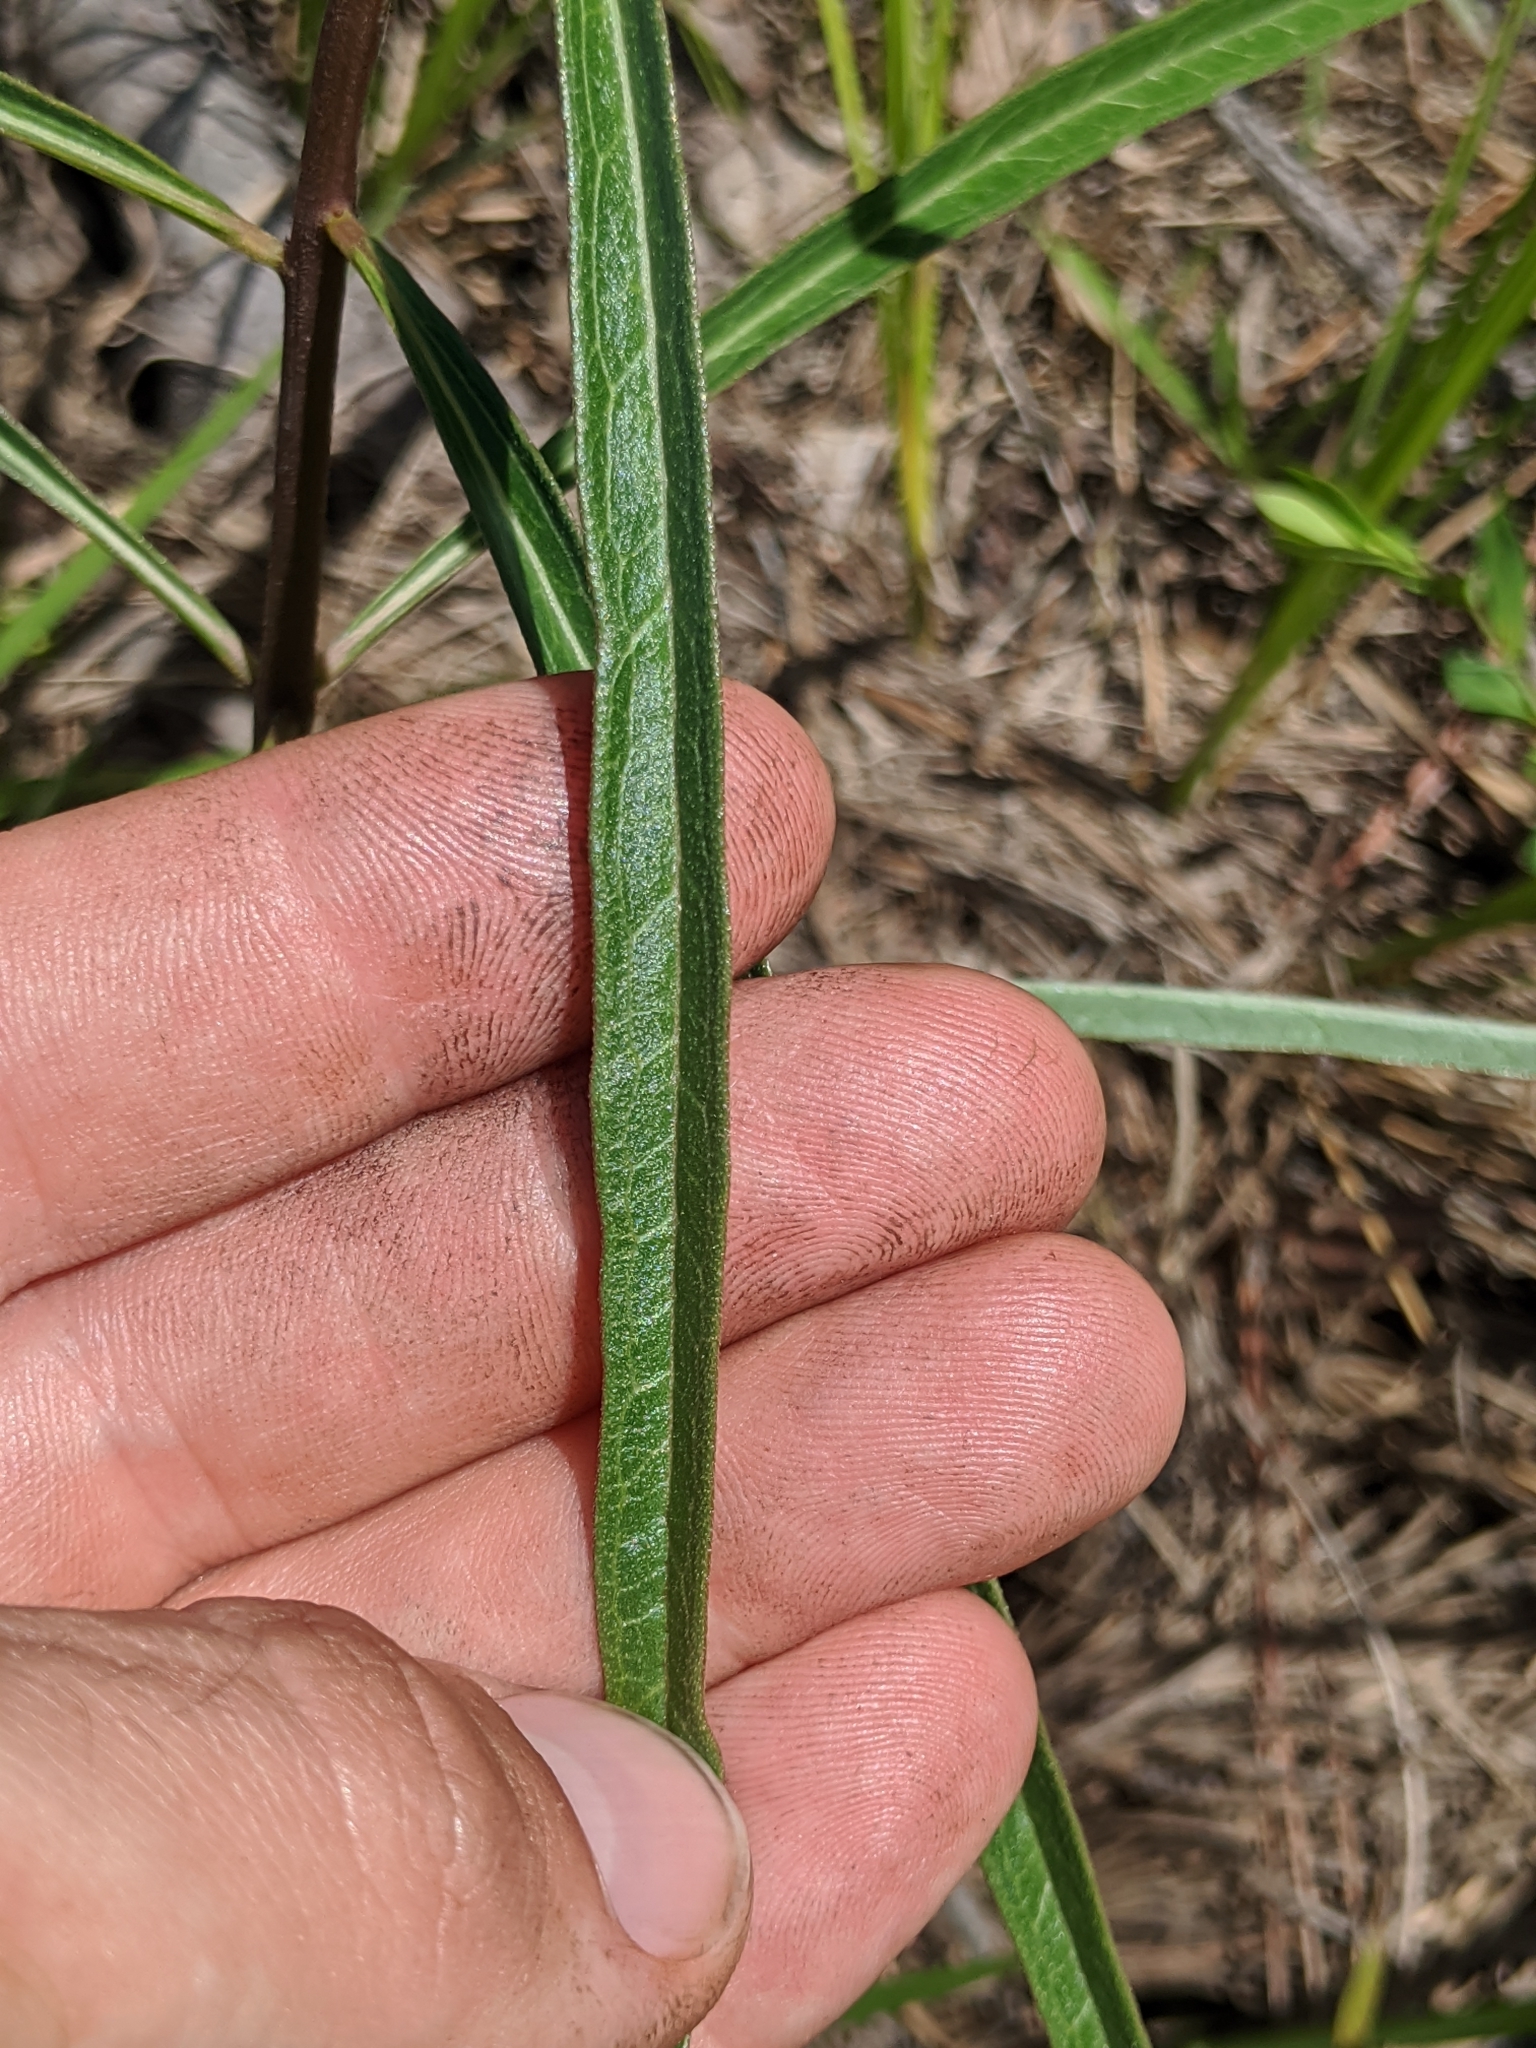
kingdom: Plantae
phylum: Tracheophyta
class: Magnoliopsida
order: Gentianales
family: Apocynaceae
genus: Asclepias
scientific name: Asclepias longifolia
